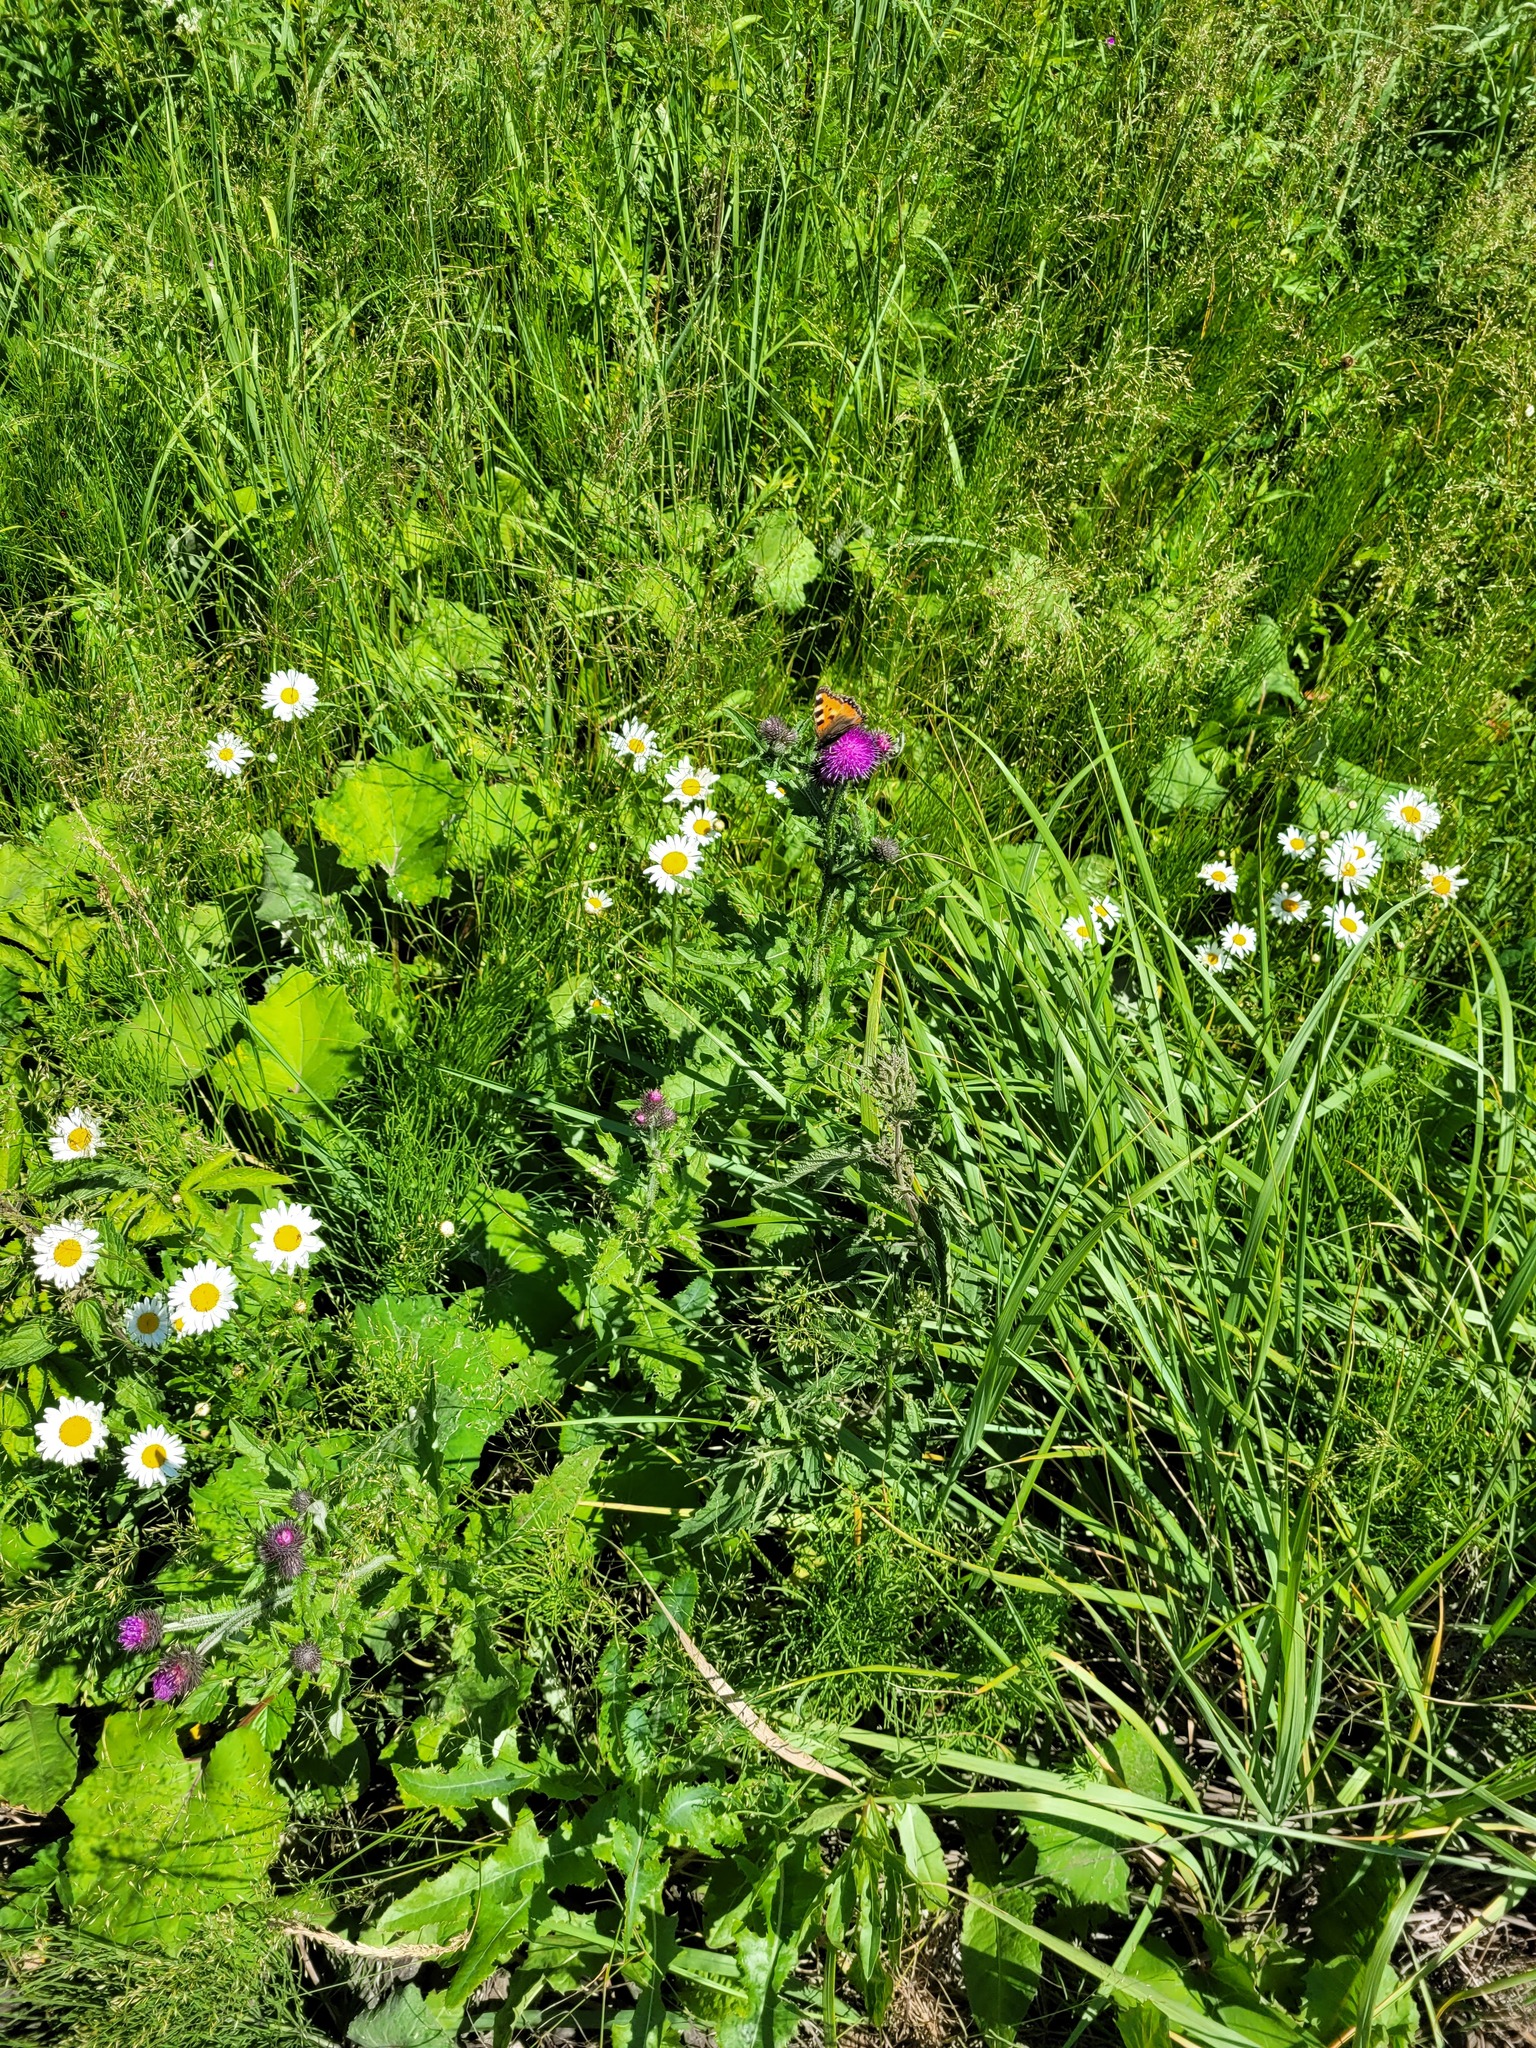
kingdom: Plantae
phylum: Tracheophyta
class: Magnoliopsida
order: Asterales
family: Asteraceae
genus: Carduus
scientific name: Carduus crispus
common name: Welted thistle
